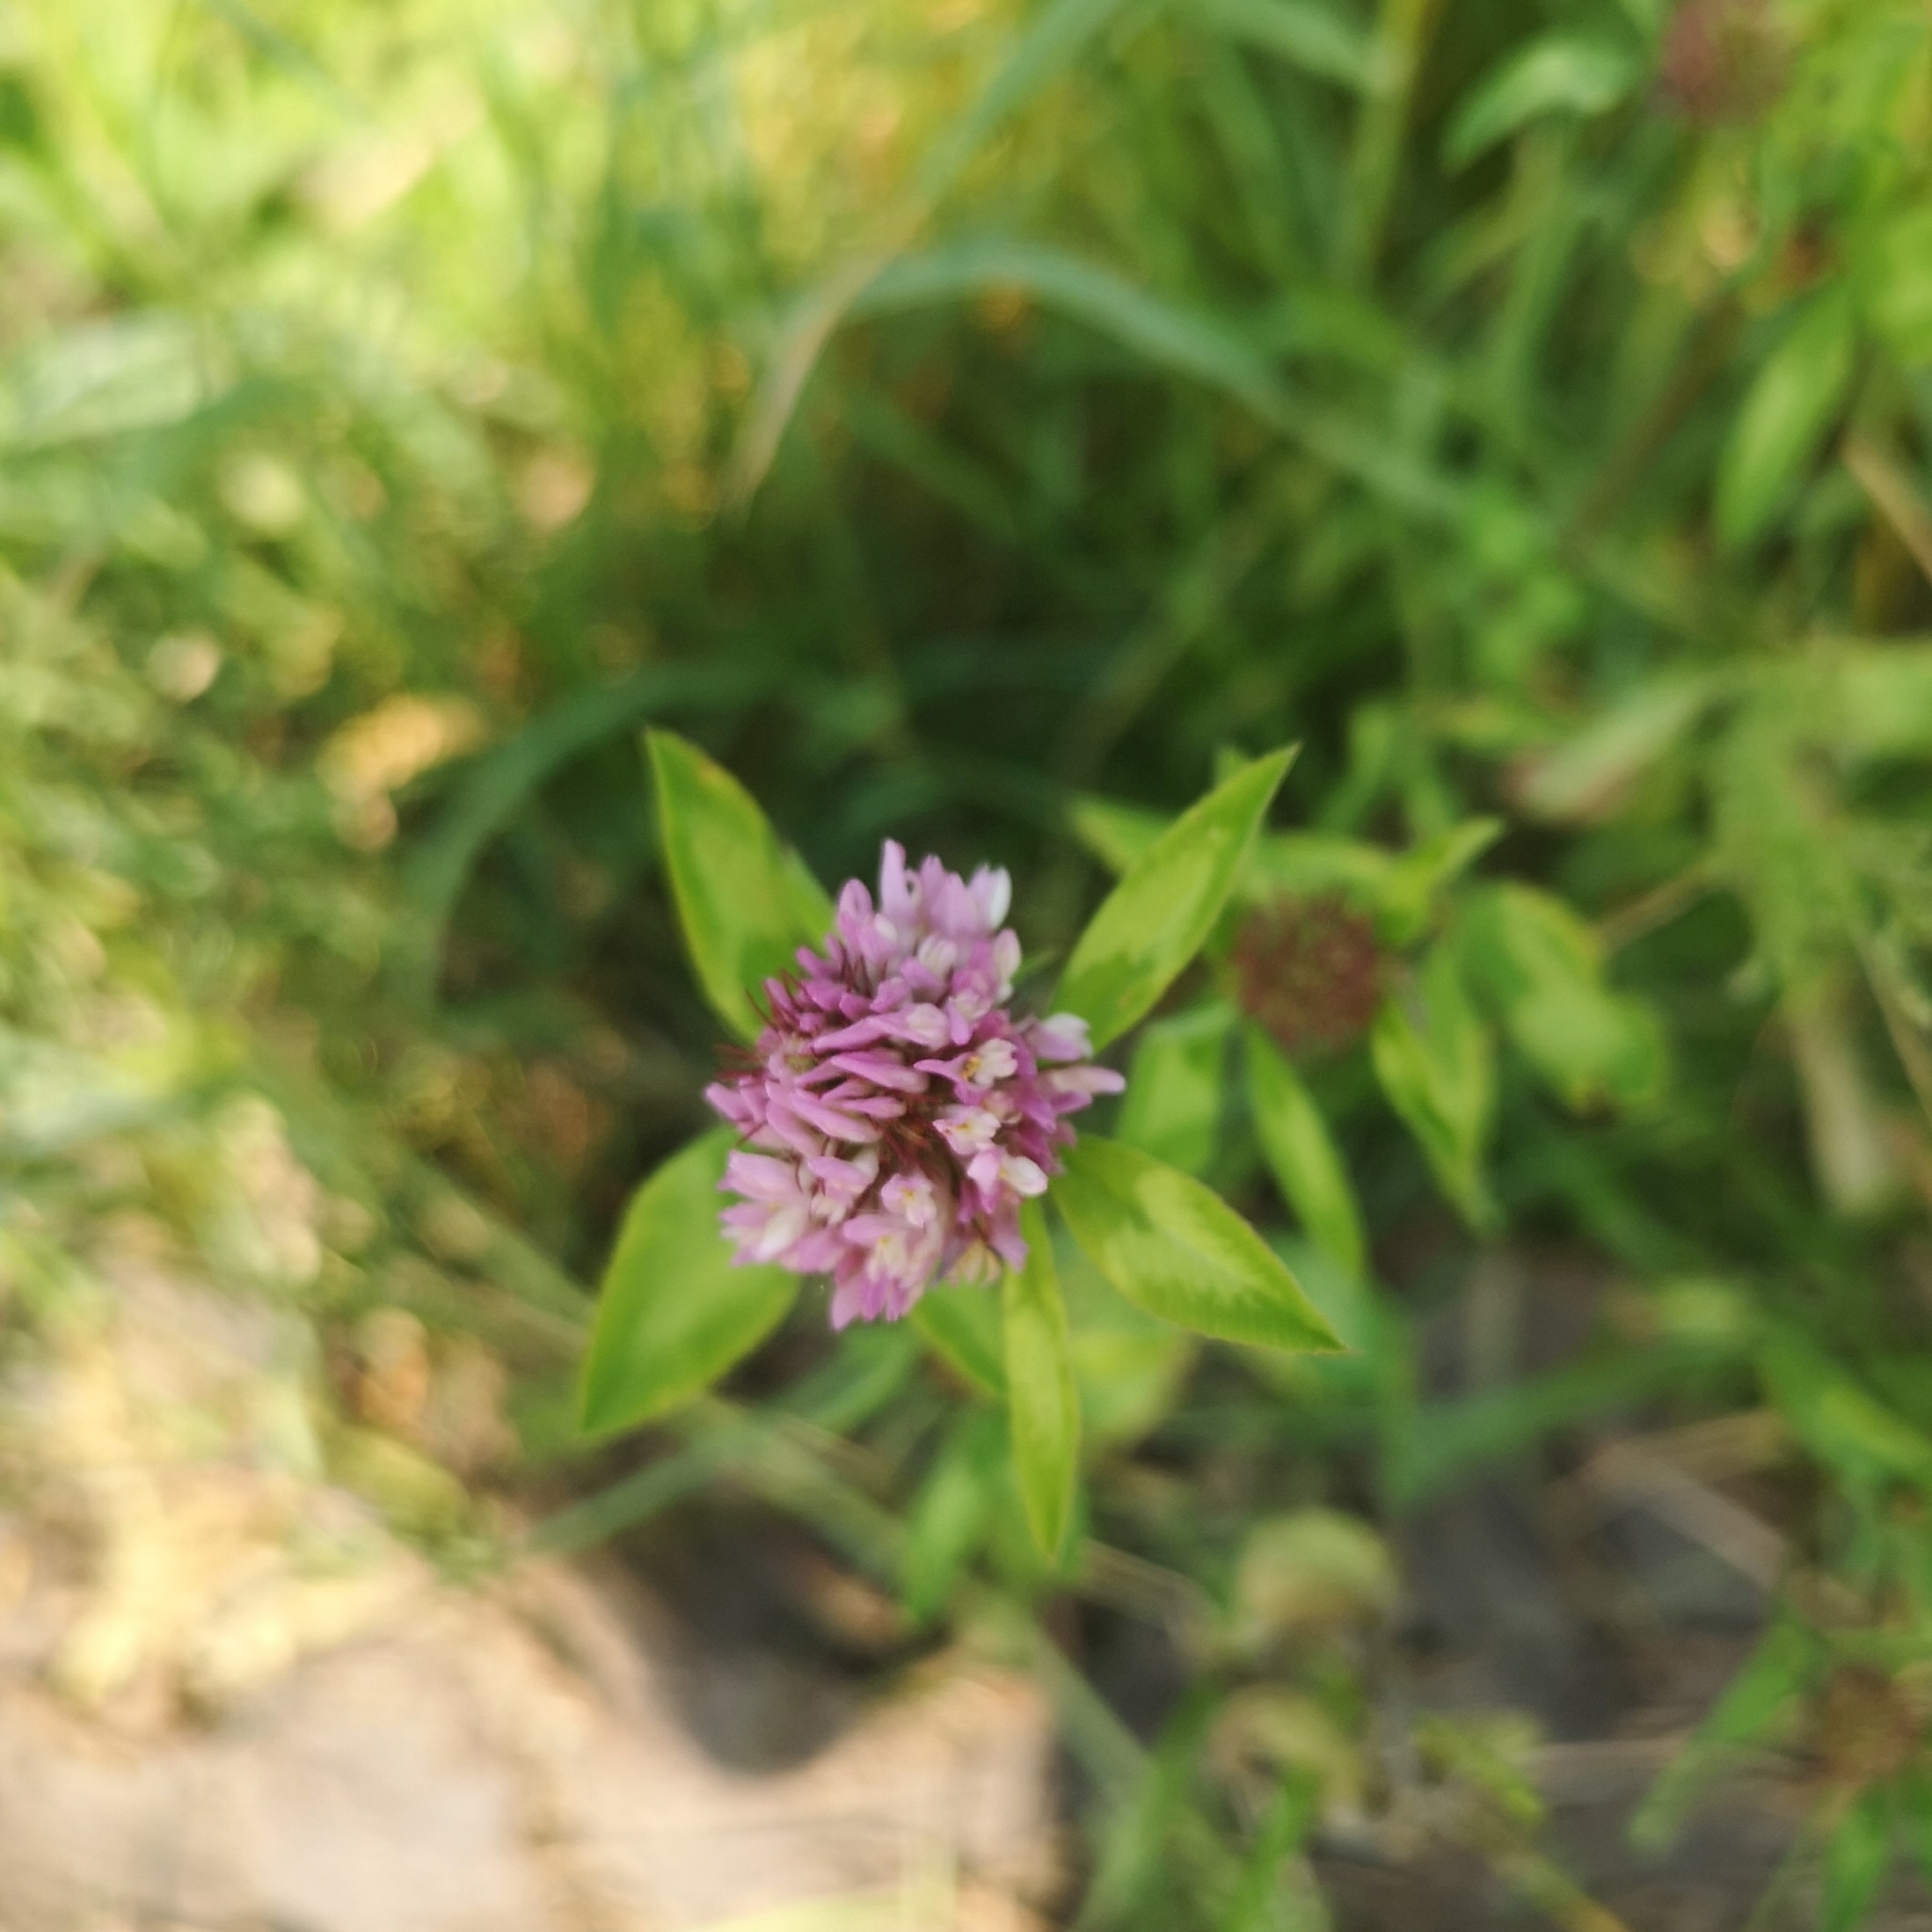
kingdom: Plantae
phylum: Tracheophyta
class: Magnoliopsida
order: Fabales
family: Fabaceae
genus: Trifolium
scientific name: Trifolium pratense
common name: Red clover
